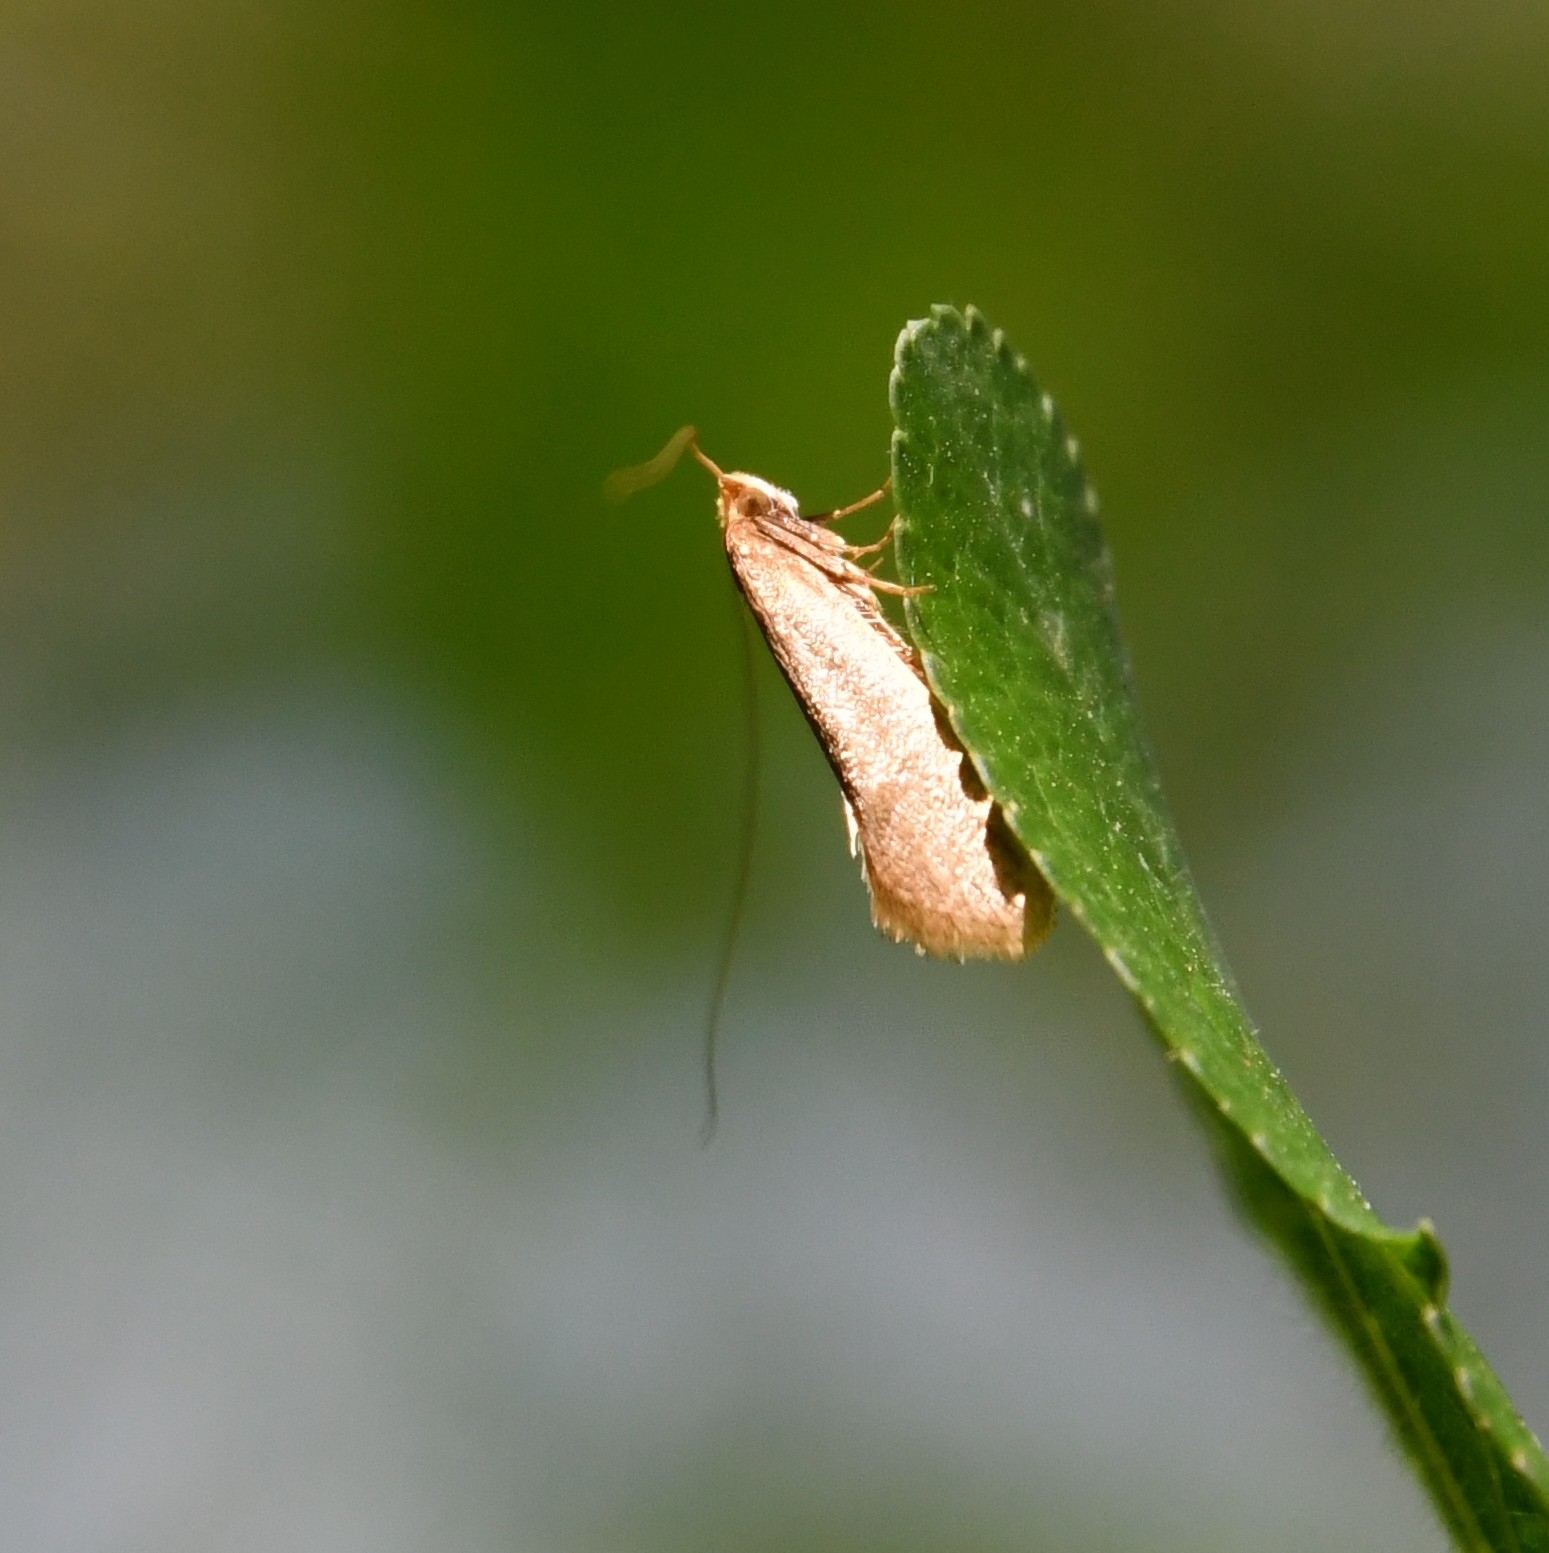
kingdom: Animalia
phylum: Arthropoda
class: Insecta
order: Lepidoptera
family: Adelidae
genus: Nematopogon
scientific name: Nematopogon swammerdamella
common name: Large long-horn
